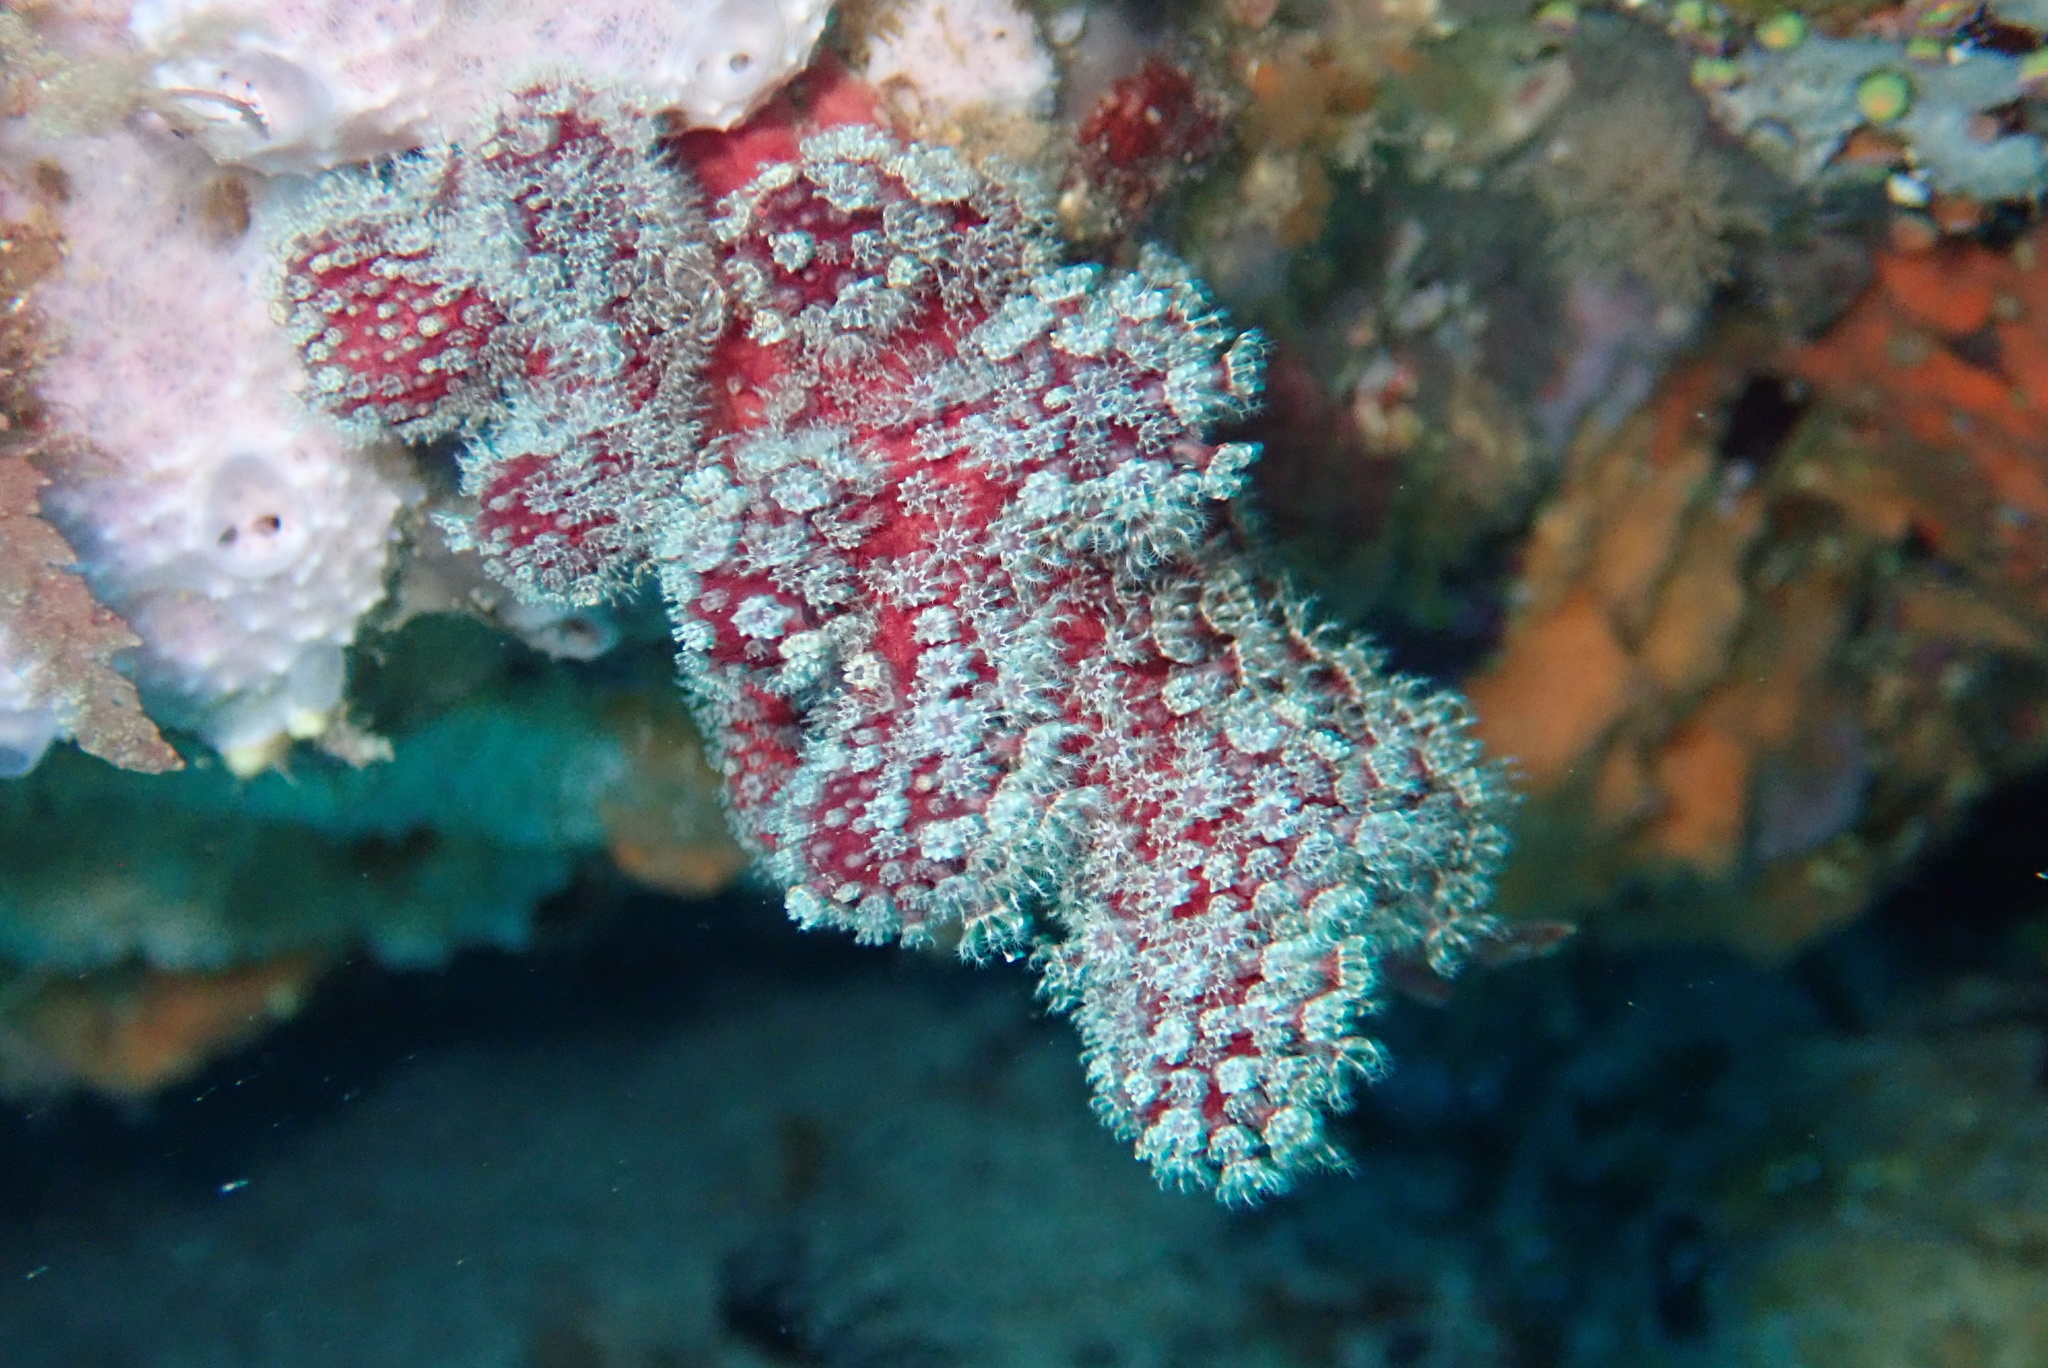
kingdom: Animalia
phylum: Cnidaria
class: Anthozoa
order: Malacalcyonacea
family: Alcyoniidae
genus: Alcyonium
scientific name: Alcyonium bocagei
